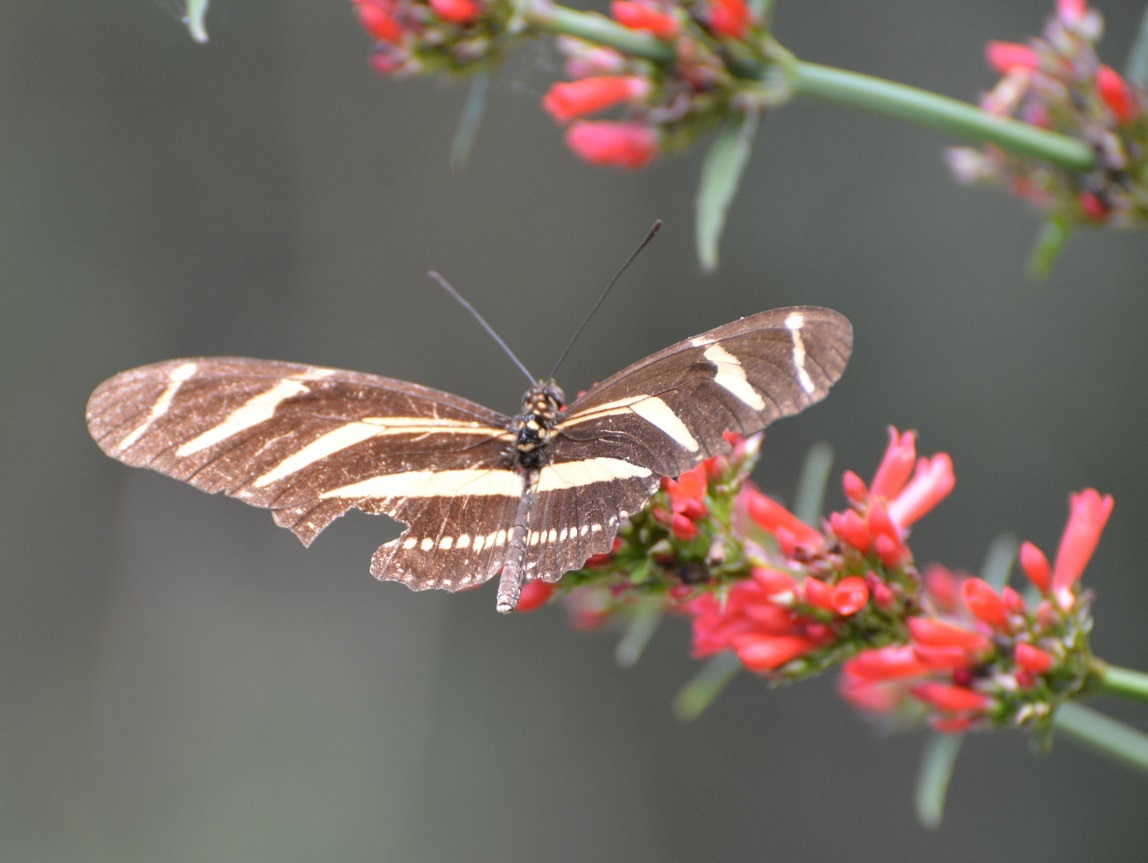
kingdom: Animalia
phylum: Arthropoda
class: Insecta
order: Lepidoptera
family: Nymphalidae
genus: Heliconius
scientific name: Heliconius charithonia
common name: Zebra long wing
